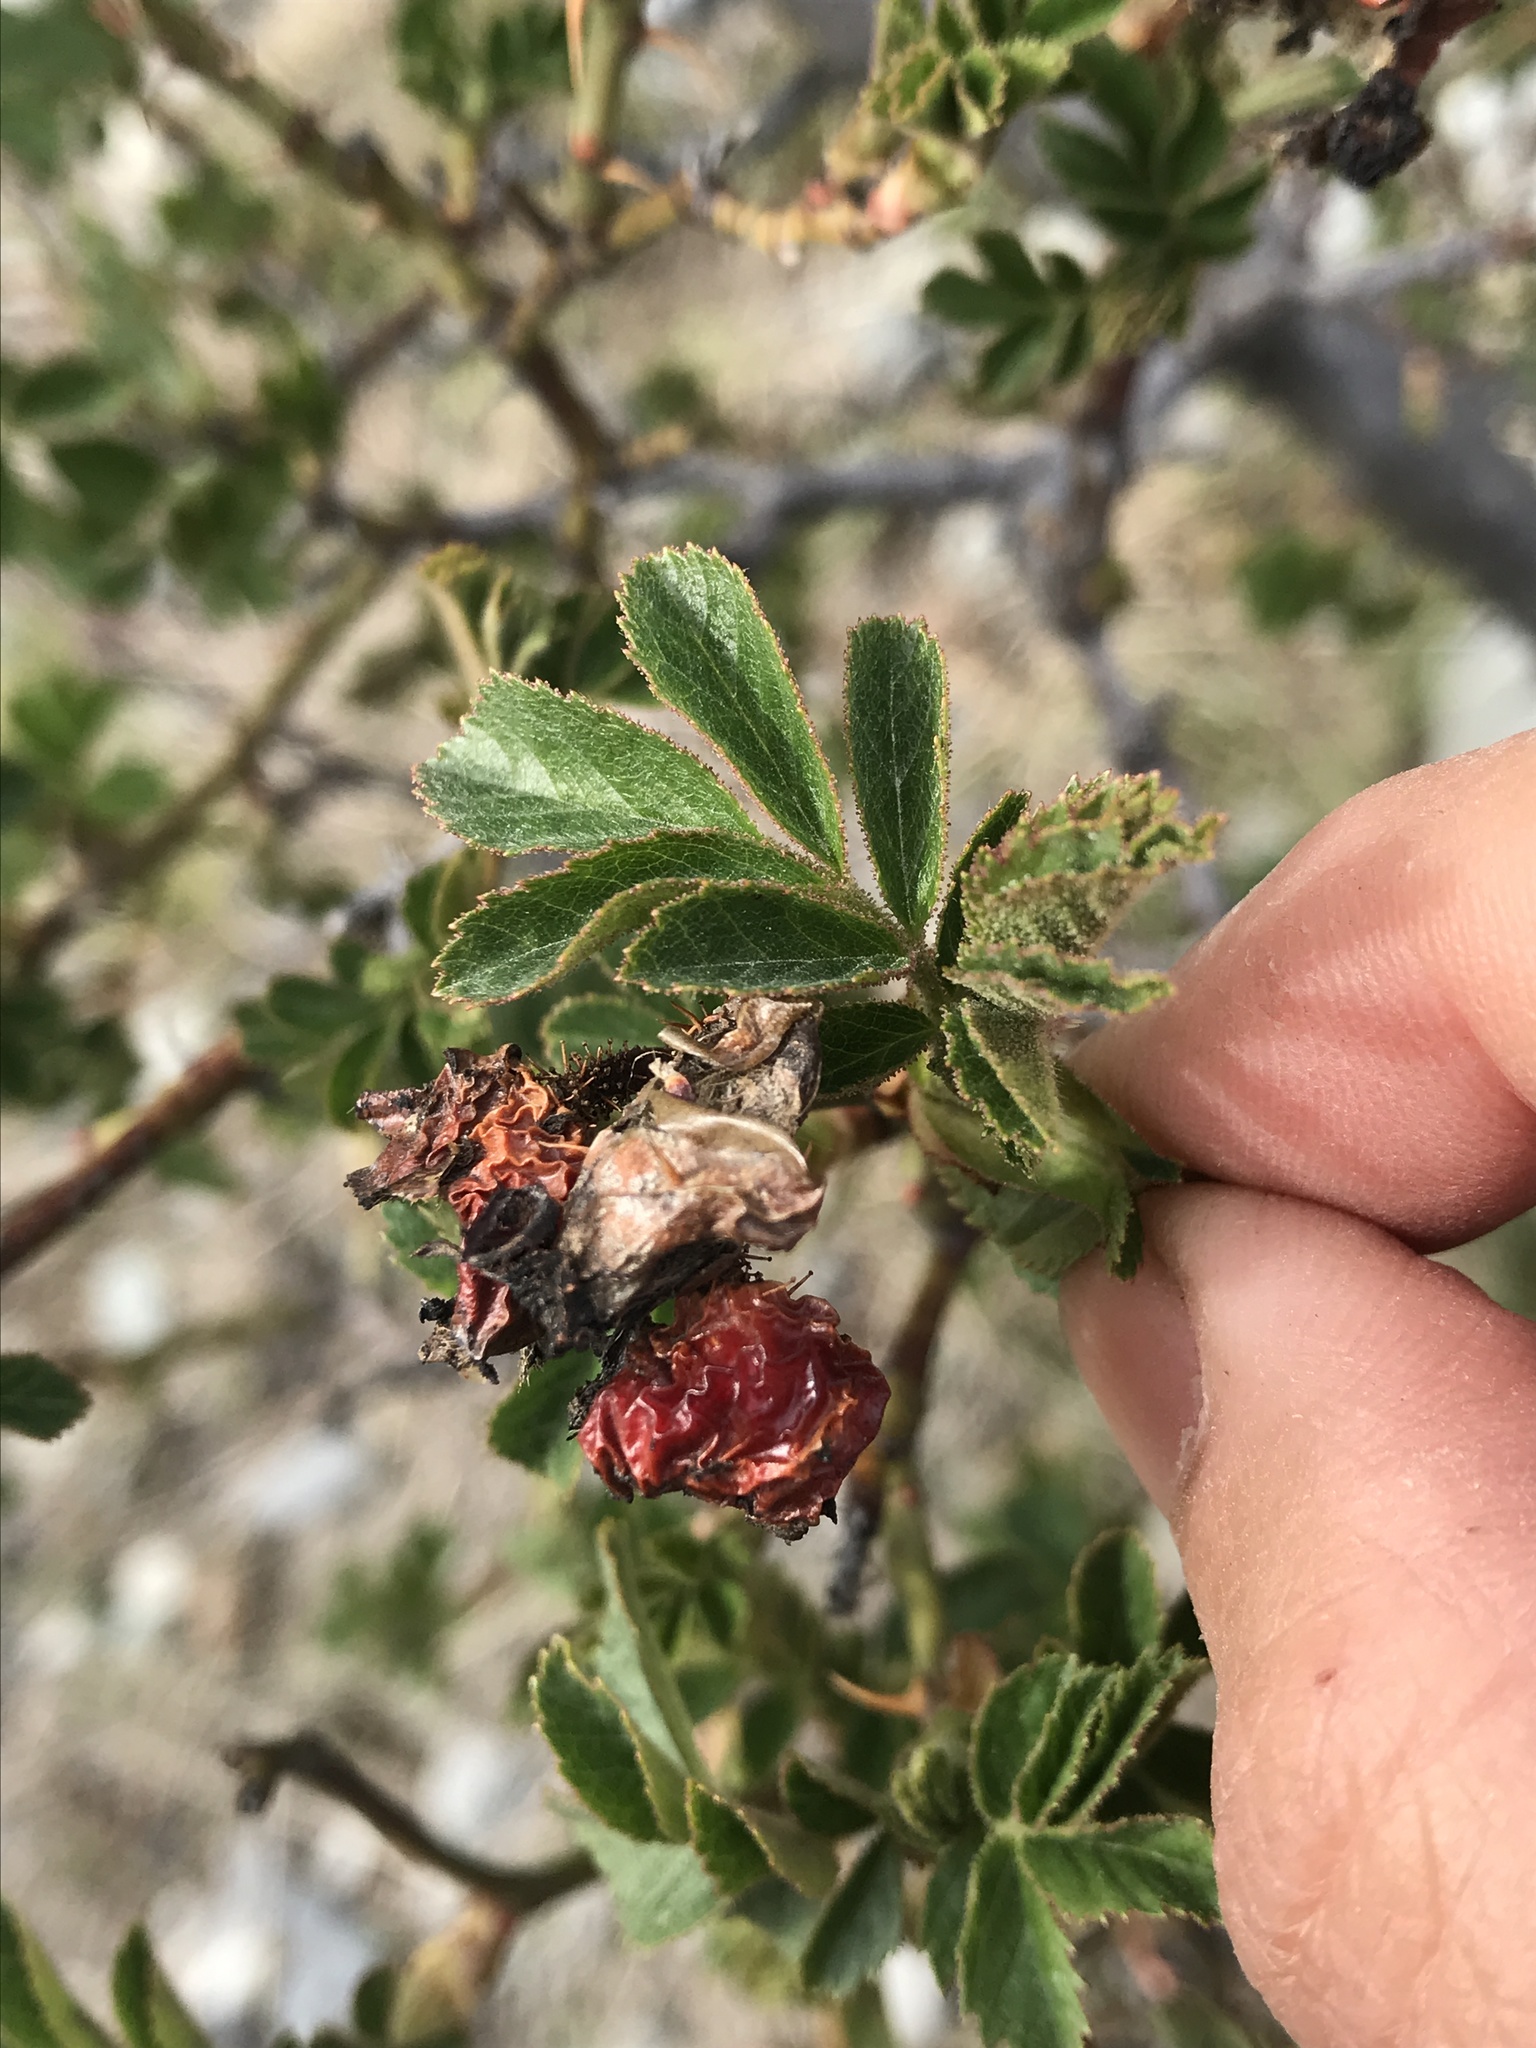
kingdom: Plantae
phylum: Tracheophyta
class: Magnoliopsida
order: Rosales
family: Rosaceae
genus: Rosa
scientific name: Rosa rubiginosa
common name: Sweet-briar
